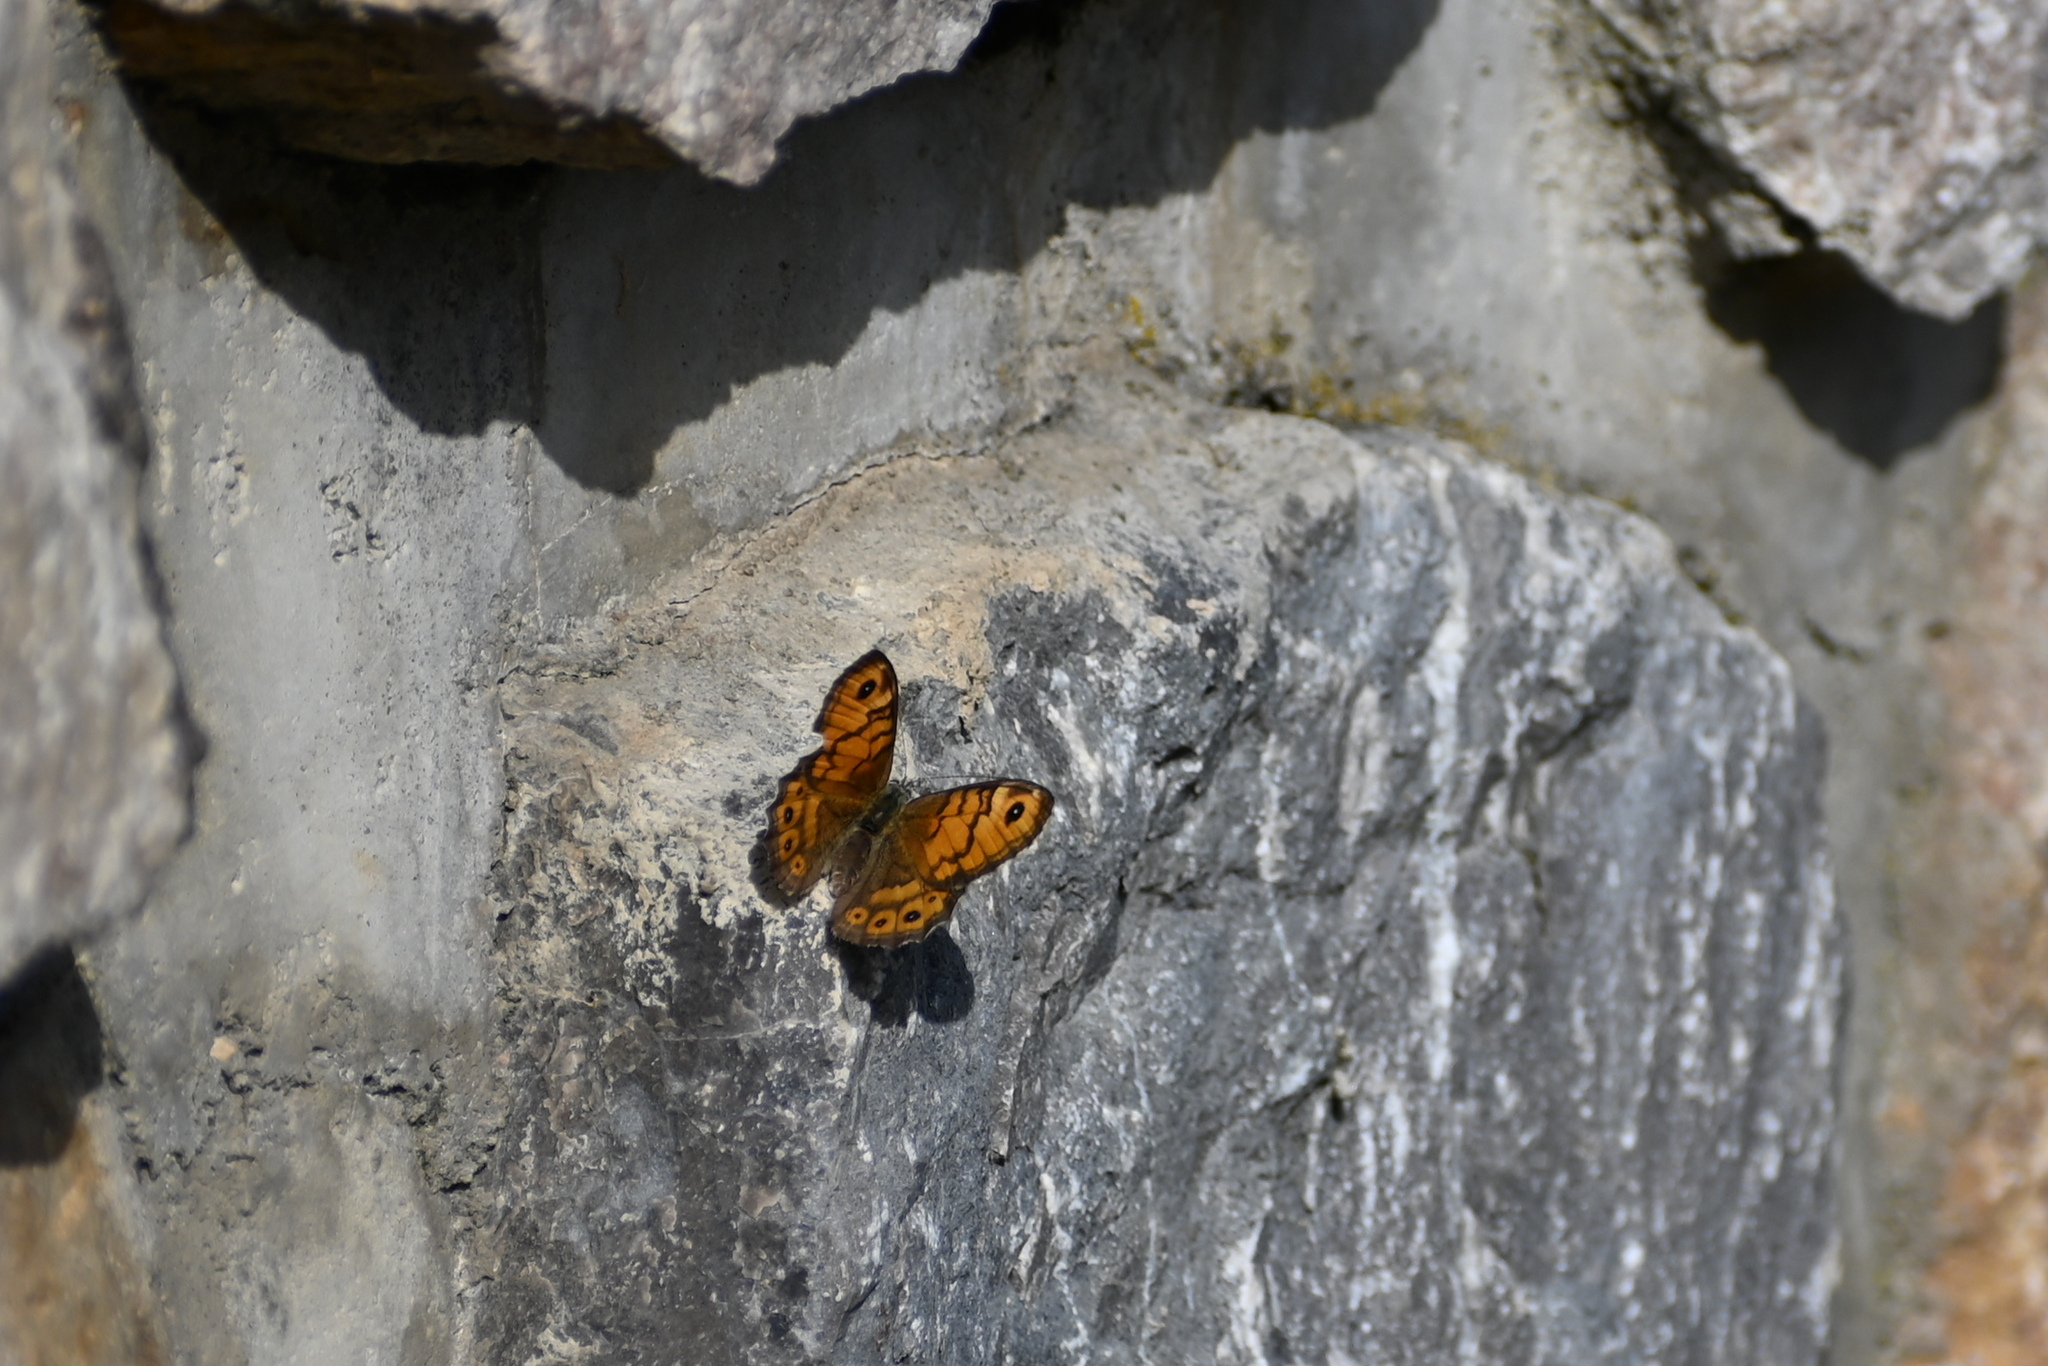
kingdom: Animalia
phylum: Arthropoda
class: Insecta
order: Lepidoptera
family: Nymphalidae
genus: Pararge
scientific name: Pararge Lasiommata megera
